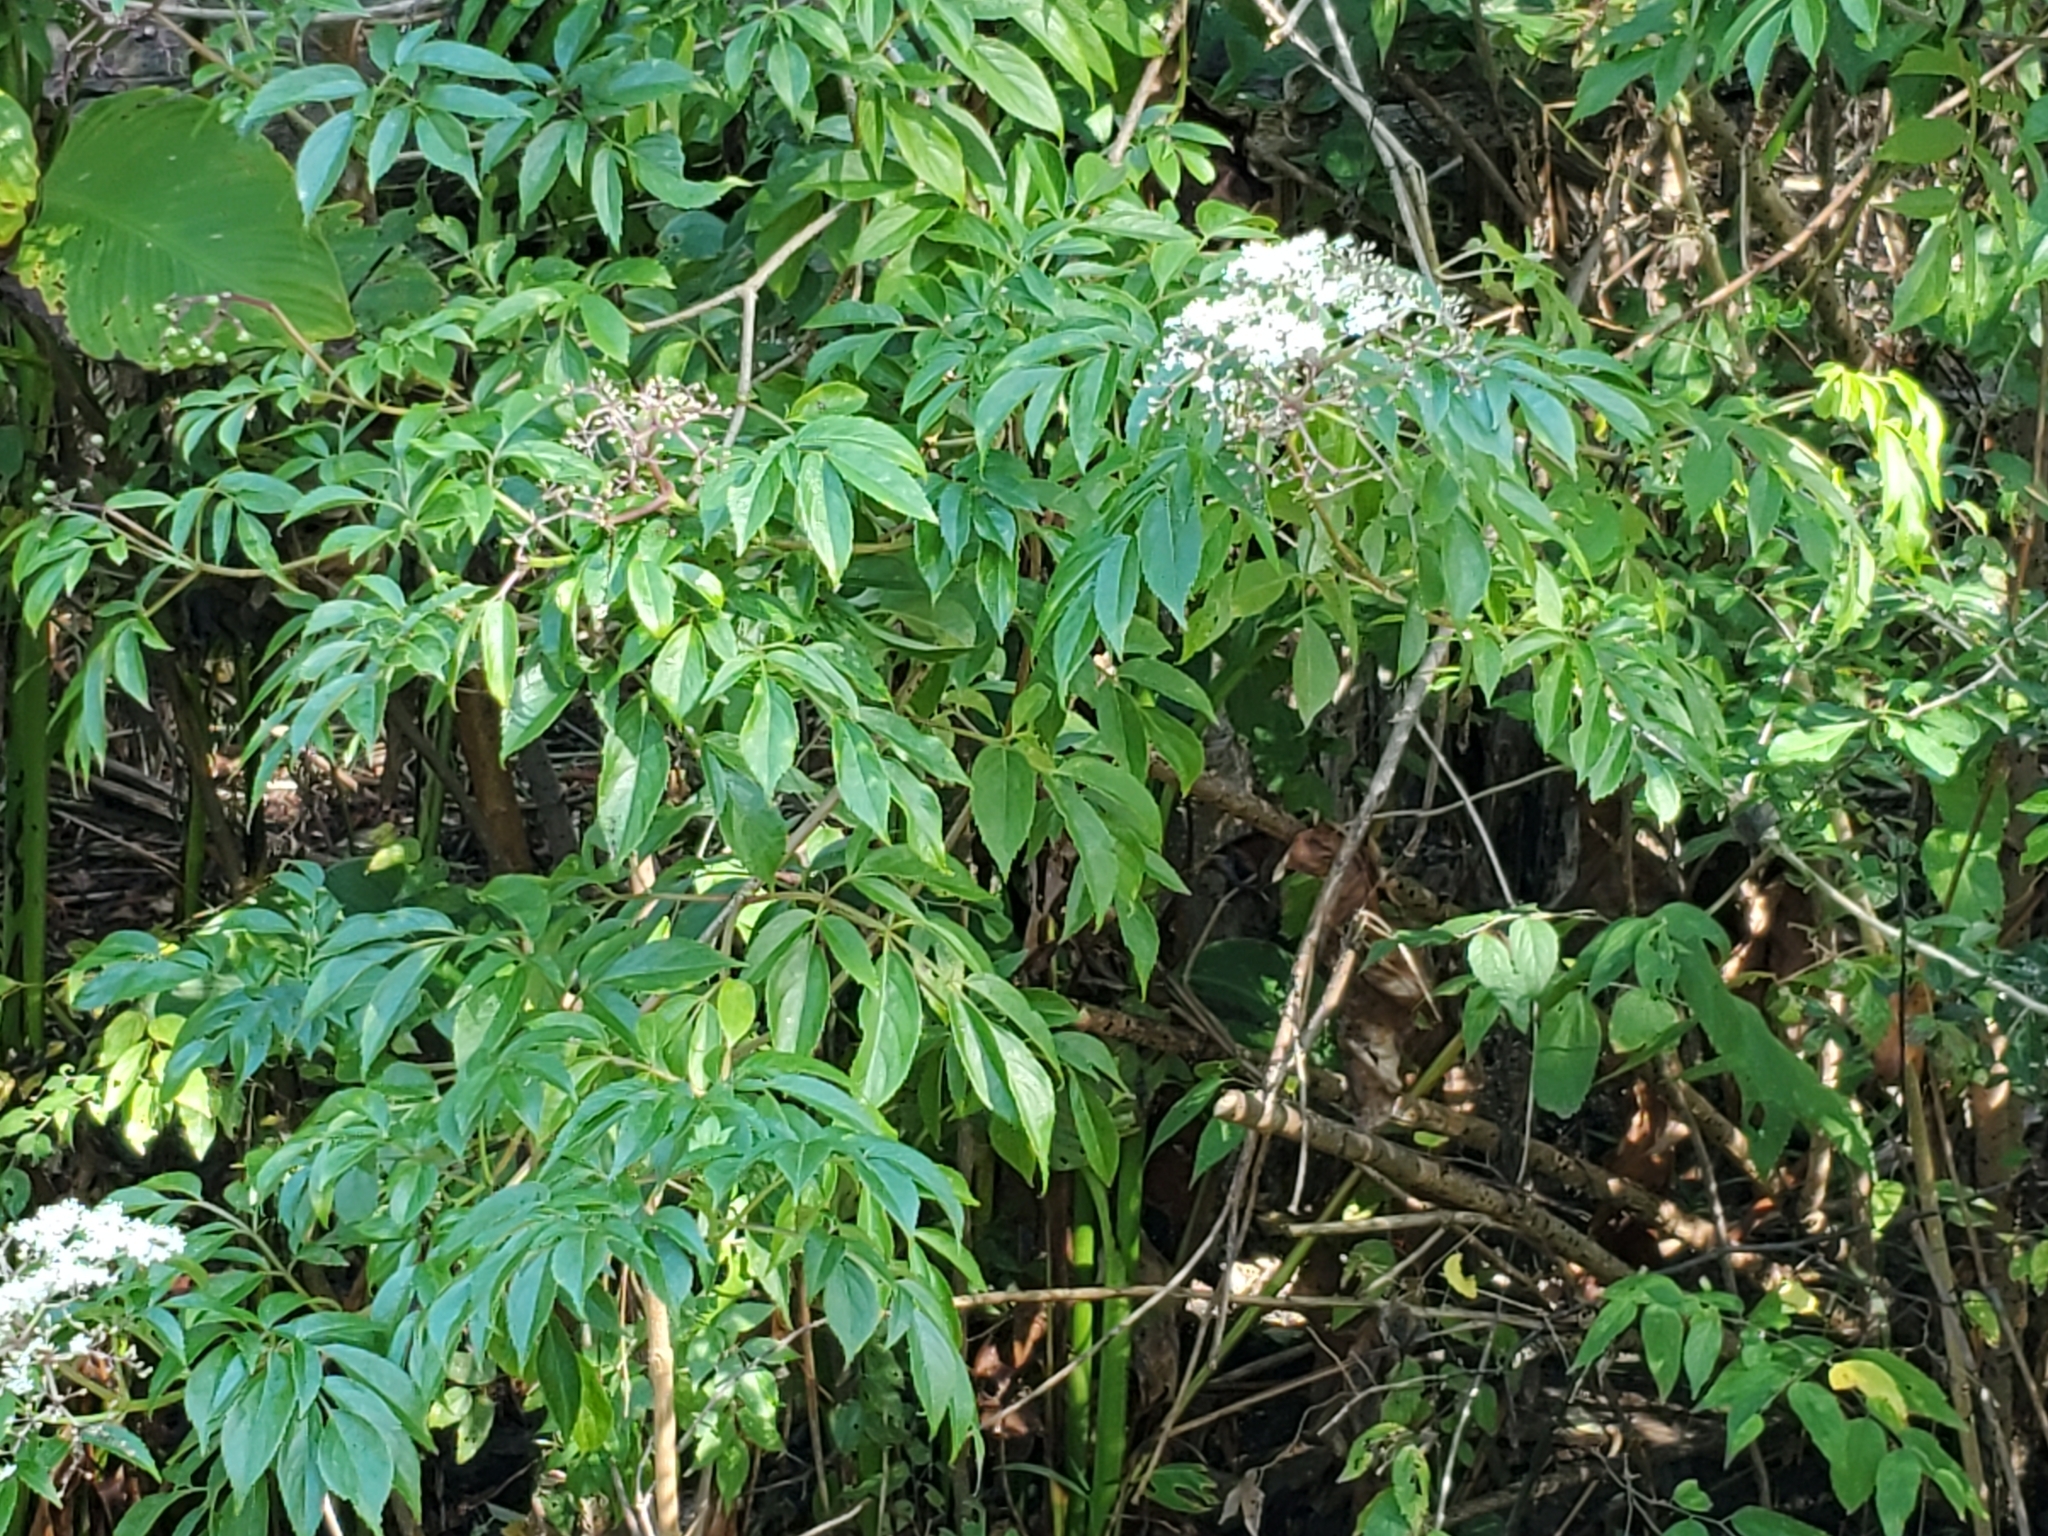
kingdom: Plantae
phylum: Tracheophyta
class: Magnoliopsida
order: Dipsacales
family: Viburnaceae
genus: Sambucus
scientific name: Sambucus canadensis
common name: American elder
